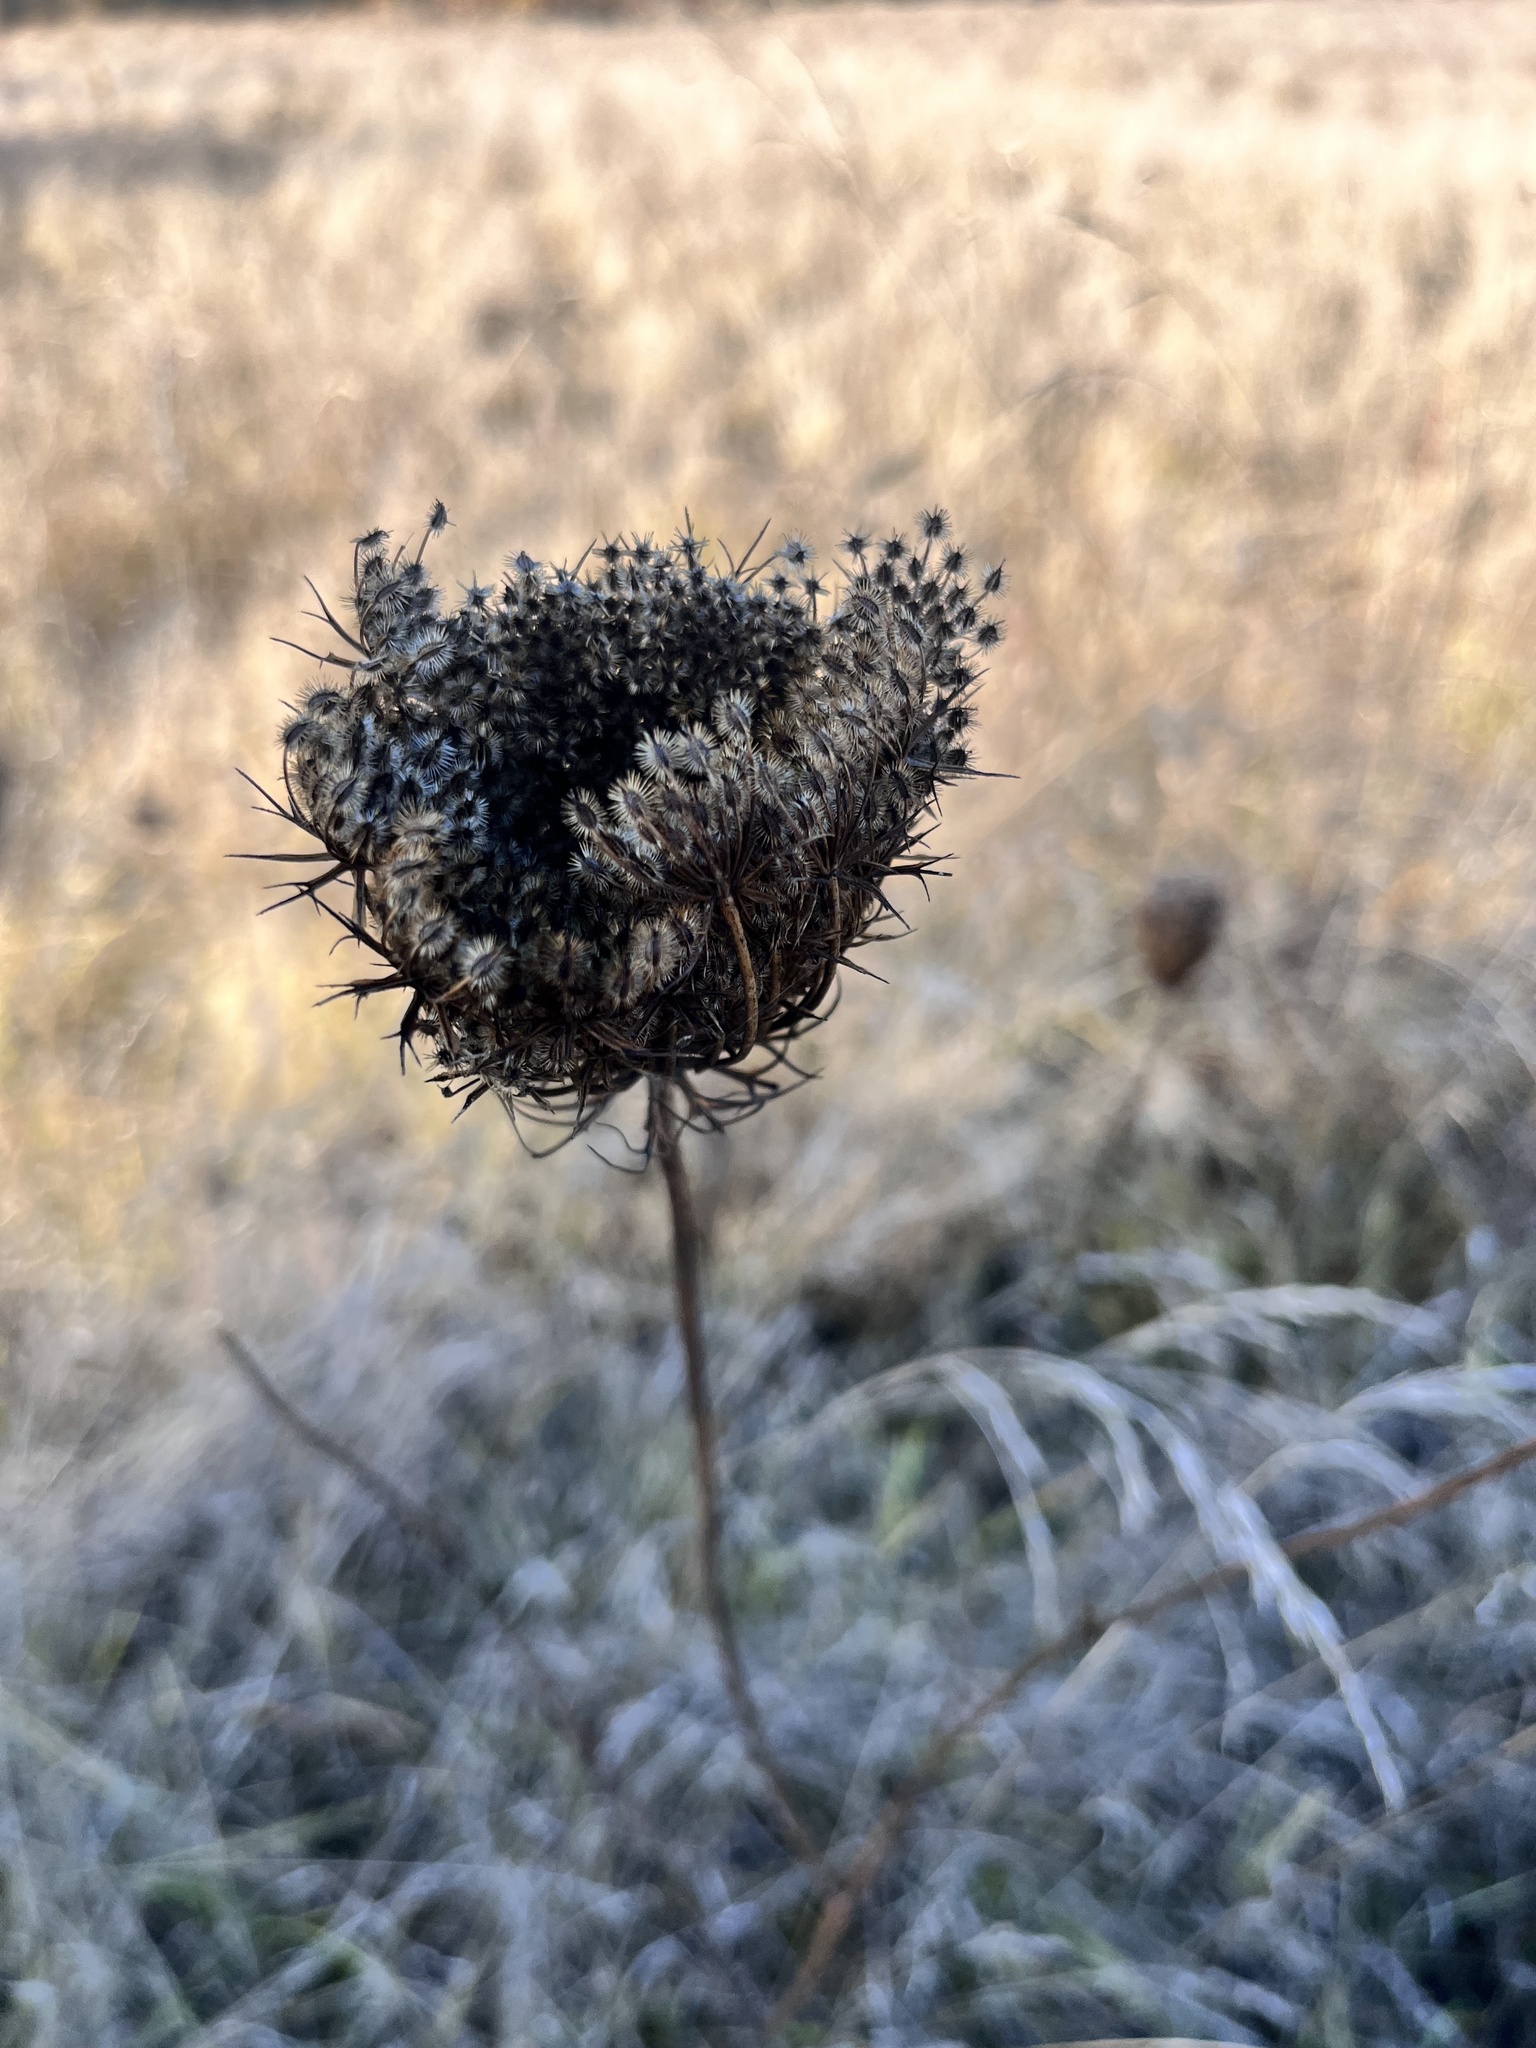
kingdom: Plantae
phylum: Tracheophyta
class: Magnoliopsida
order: Apiales
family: Apiaceae
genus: Daucus
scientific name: Daucus carota
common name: Wild carrot
